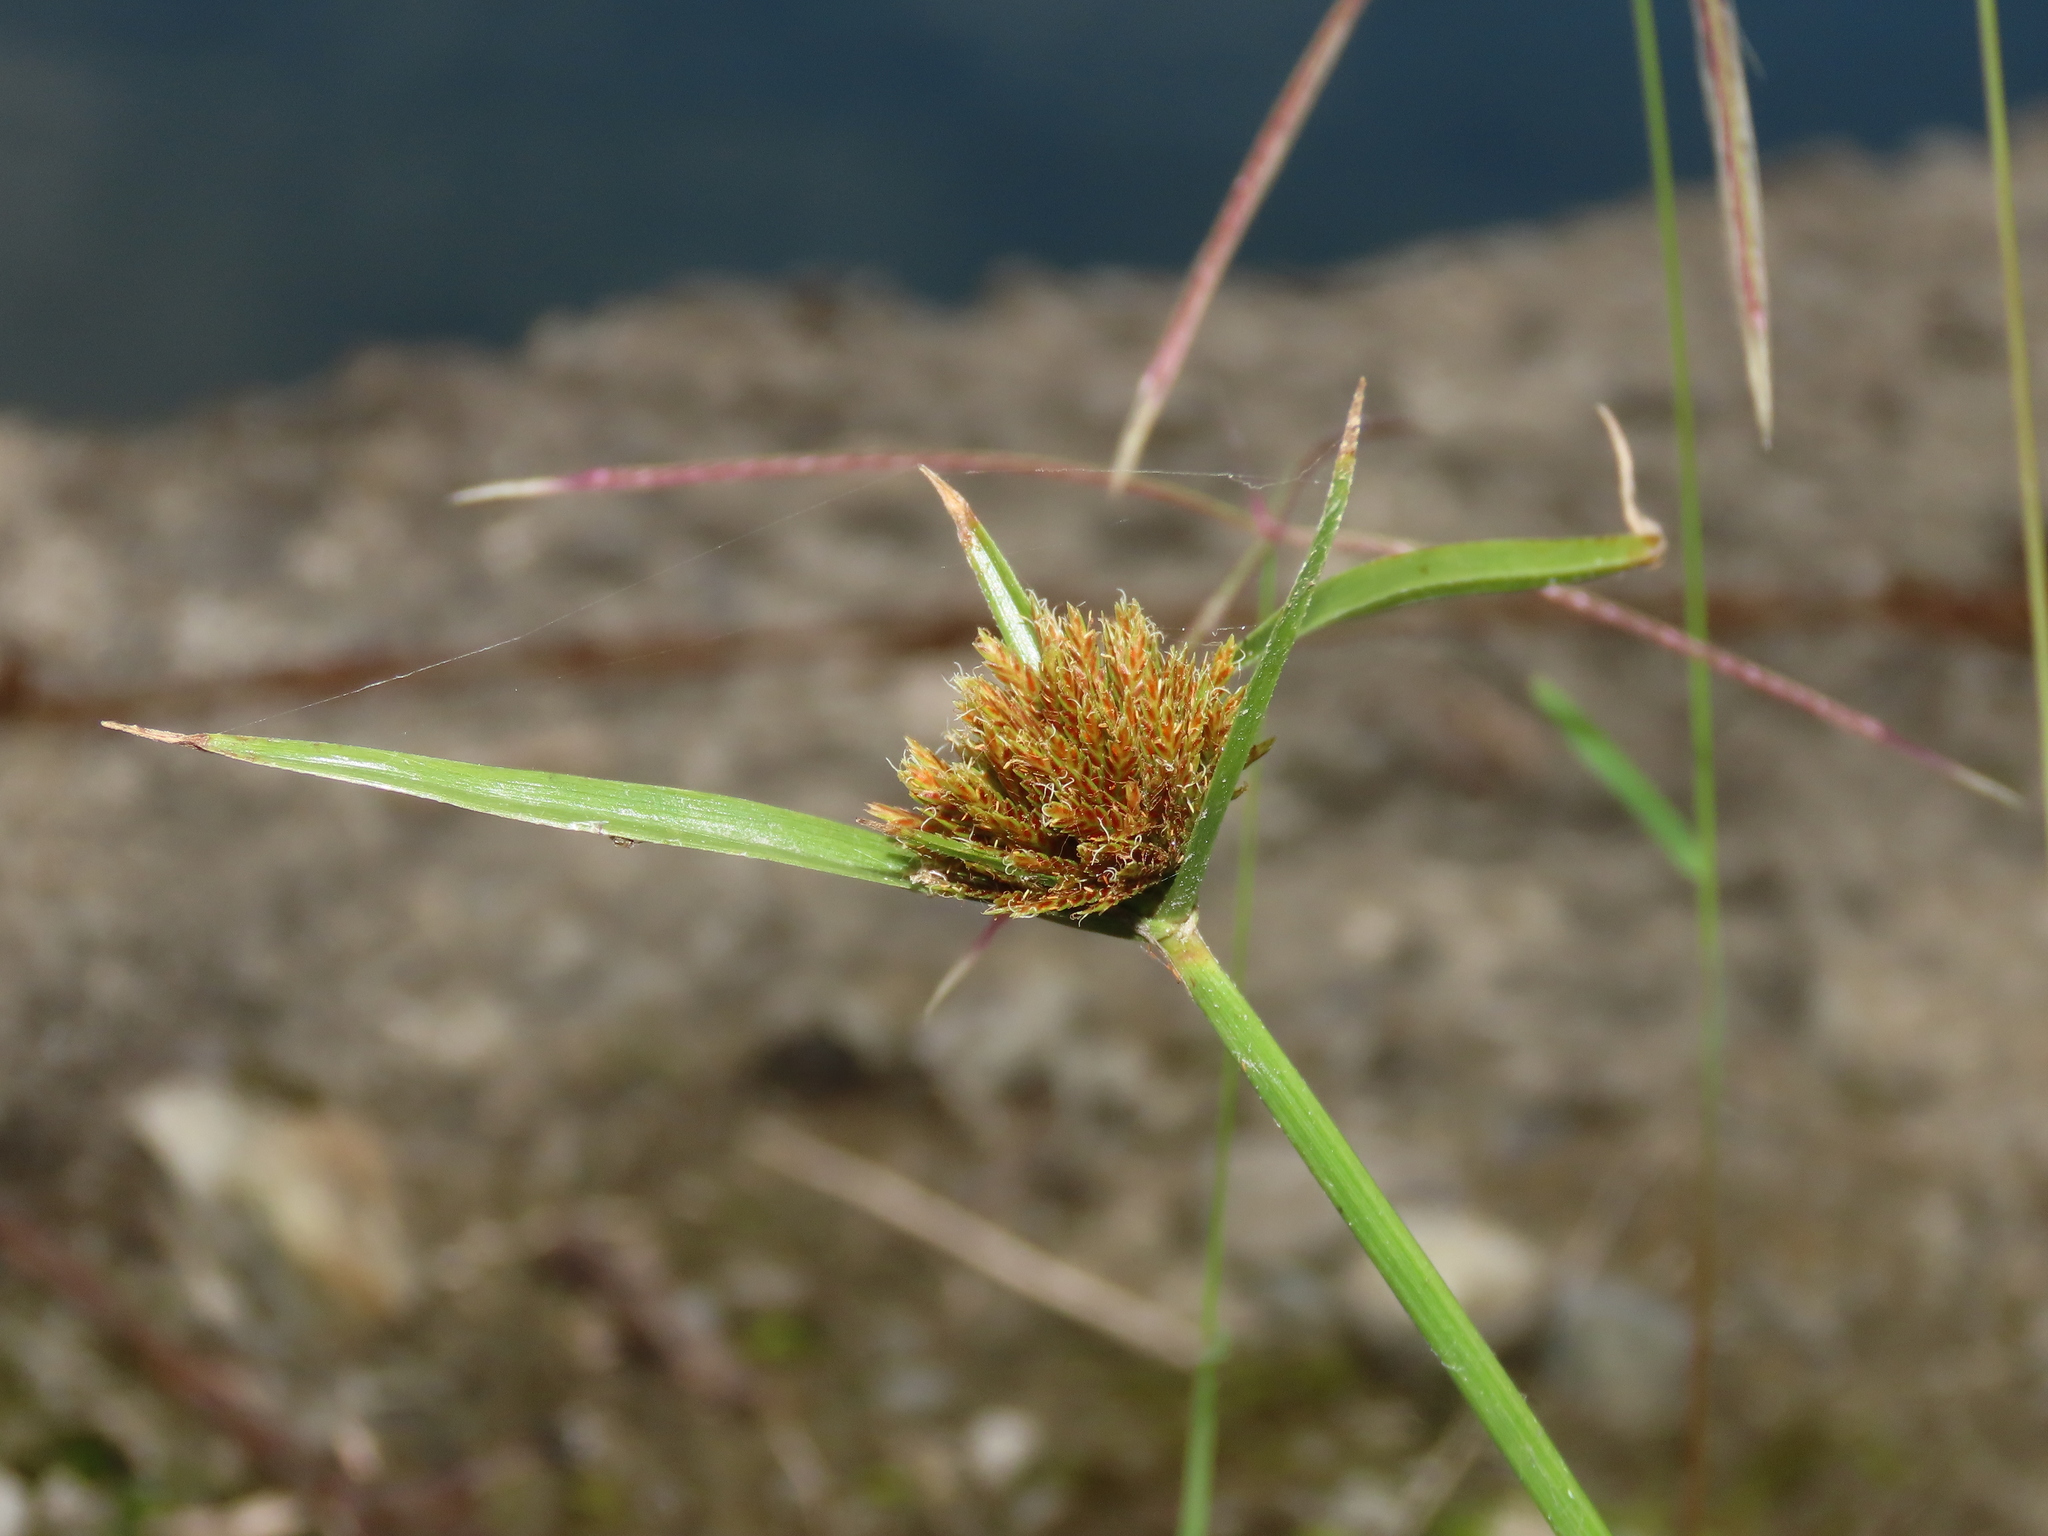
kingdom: Plantae
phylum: Tracheophyta
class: Liliopsida
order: Poales
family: Cyperaceae
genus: Cyperus
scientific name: Cyperus polystachyos
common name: Bunchy flat sedge
